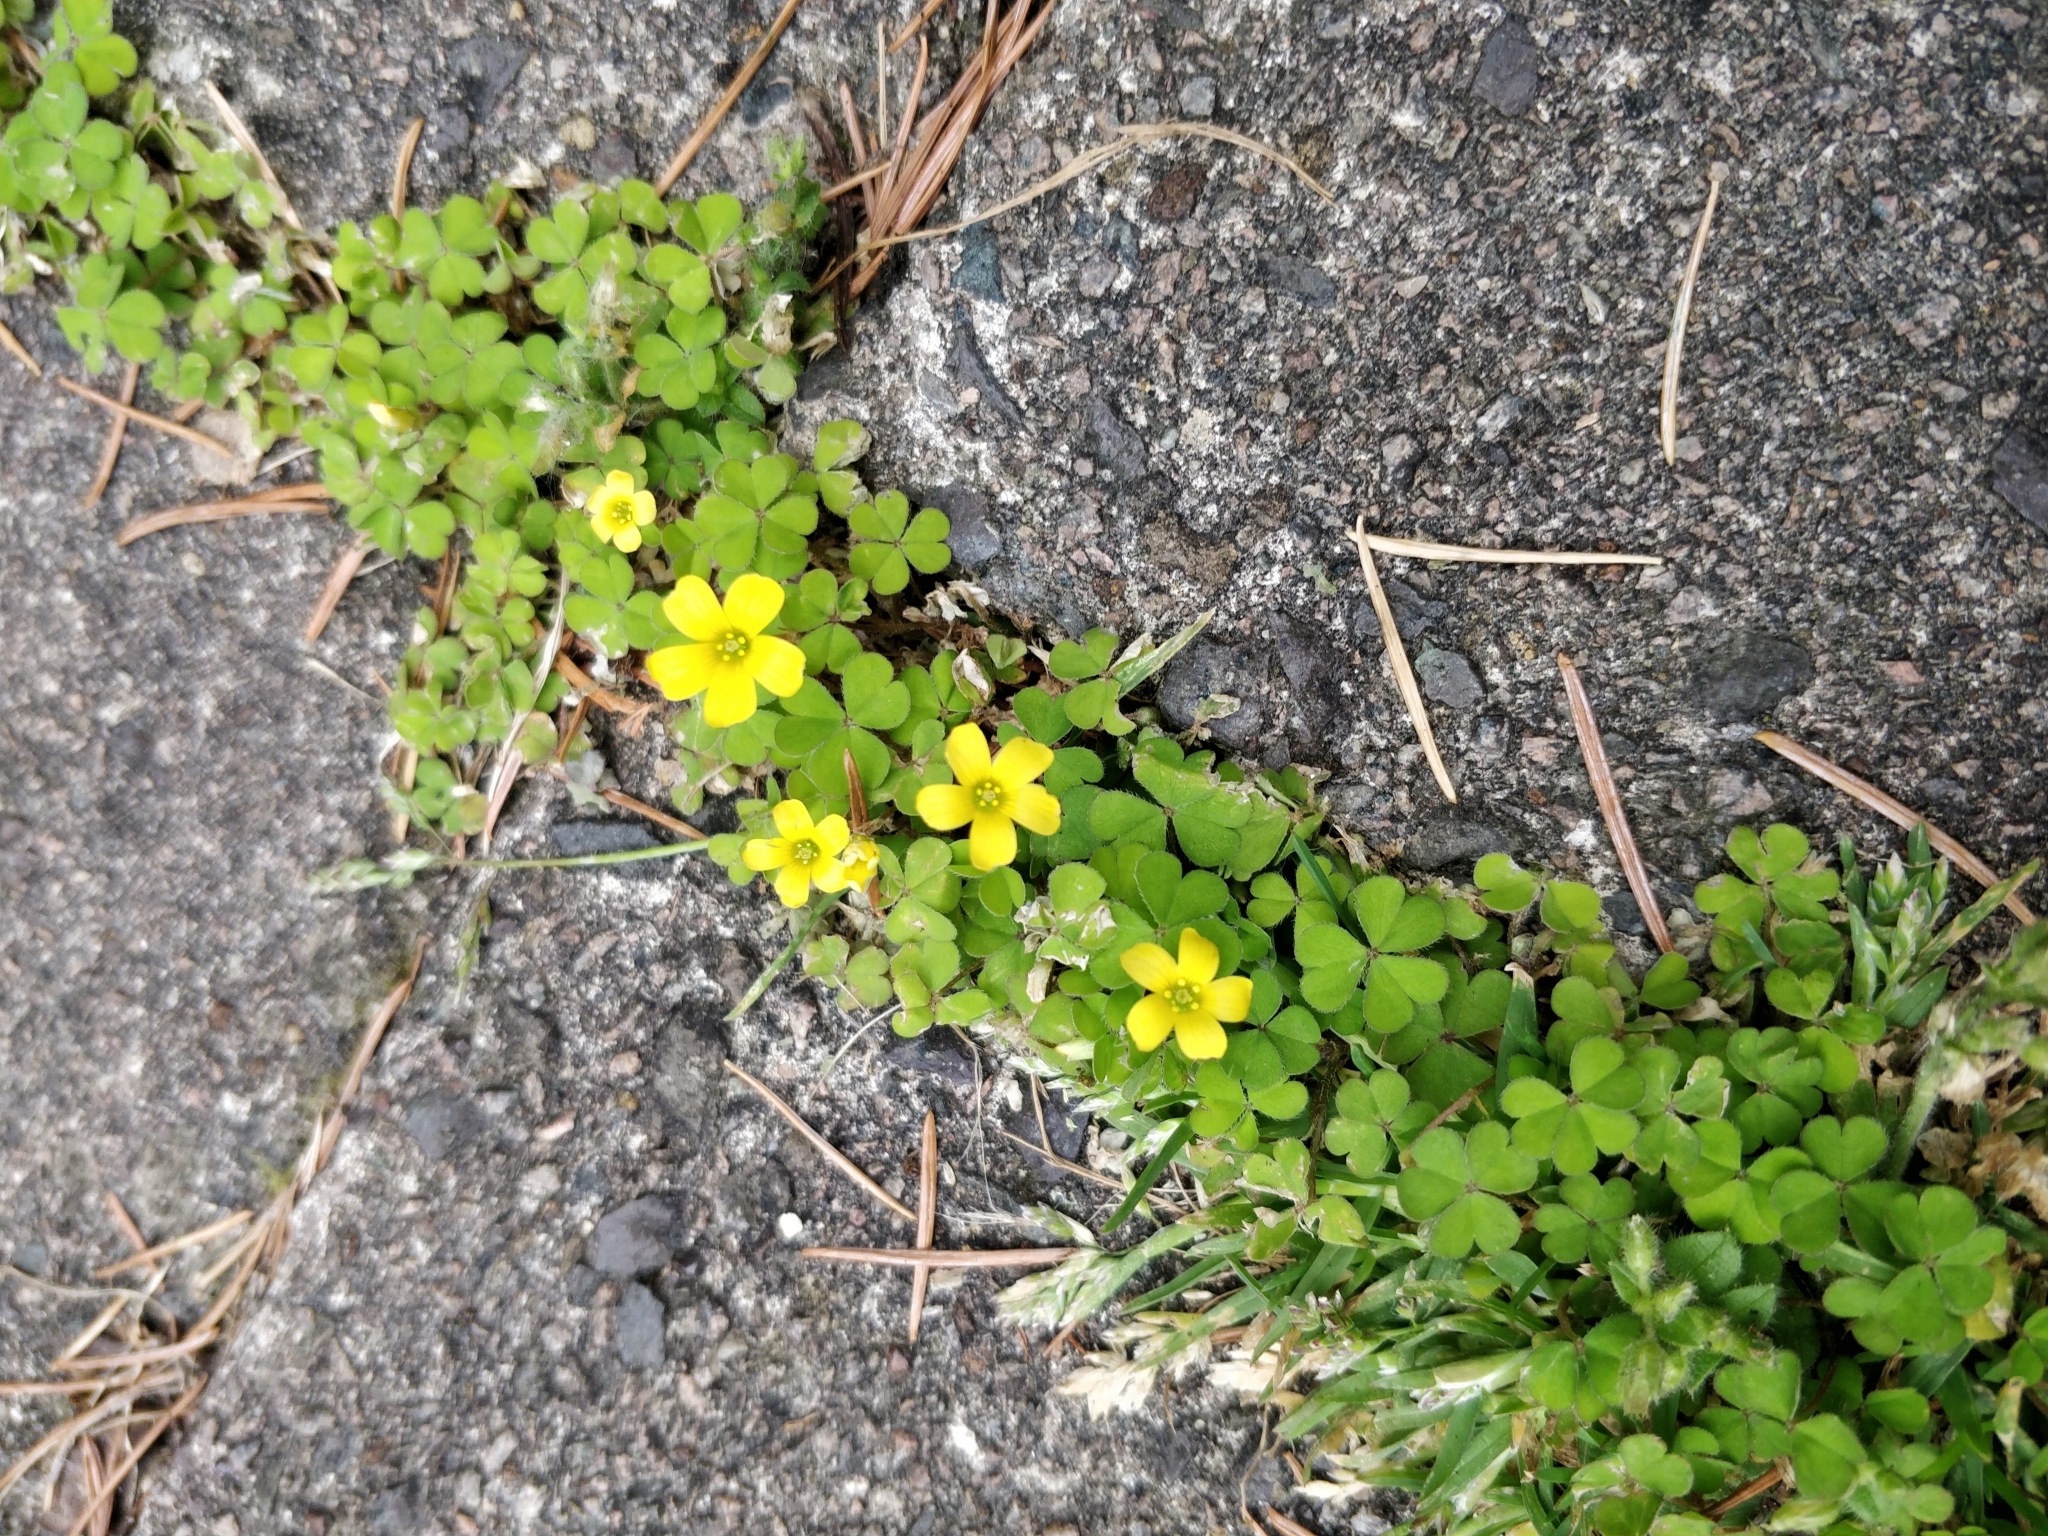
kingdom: Plantae
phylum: Tracheophyta
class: Magnoliopsida
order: Oxalidales
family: Oxalidaceae
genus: Oxalis
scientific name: Oxalis exilis
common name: Least yellow-sorrel
